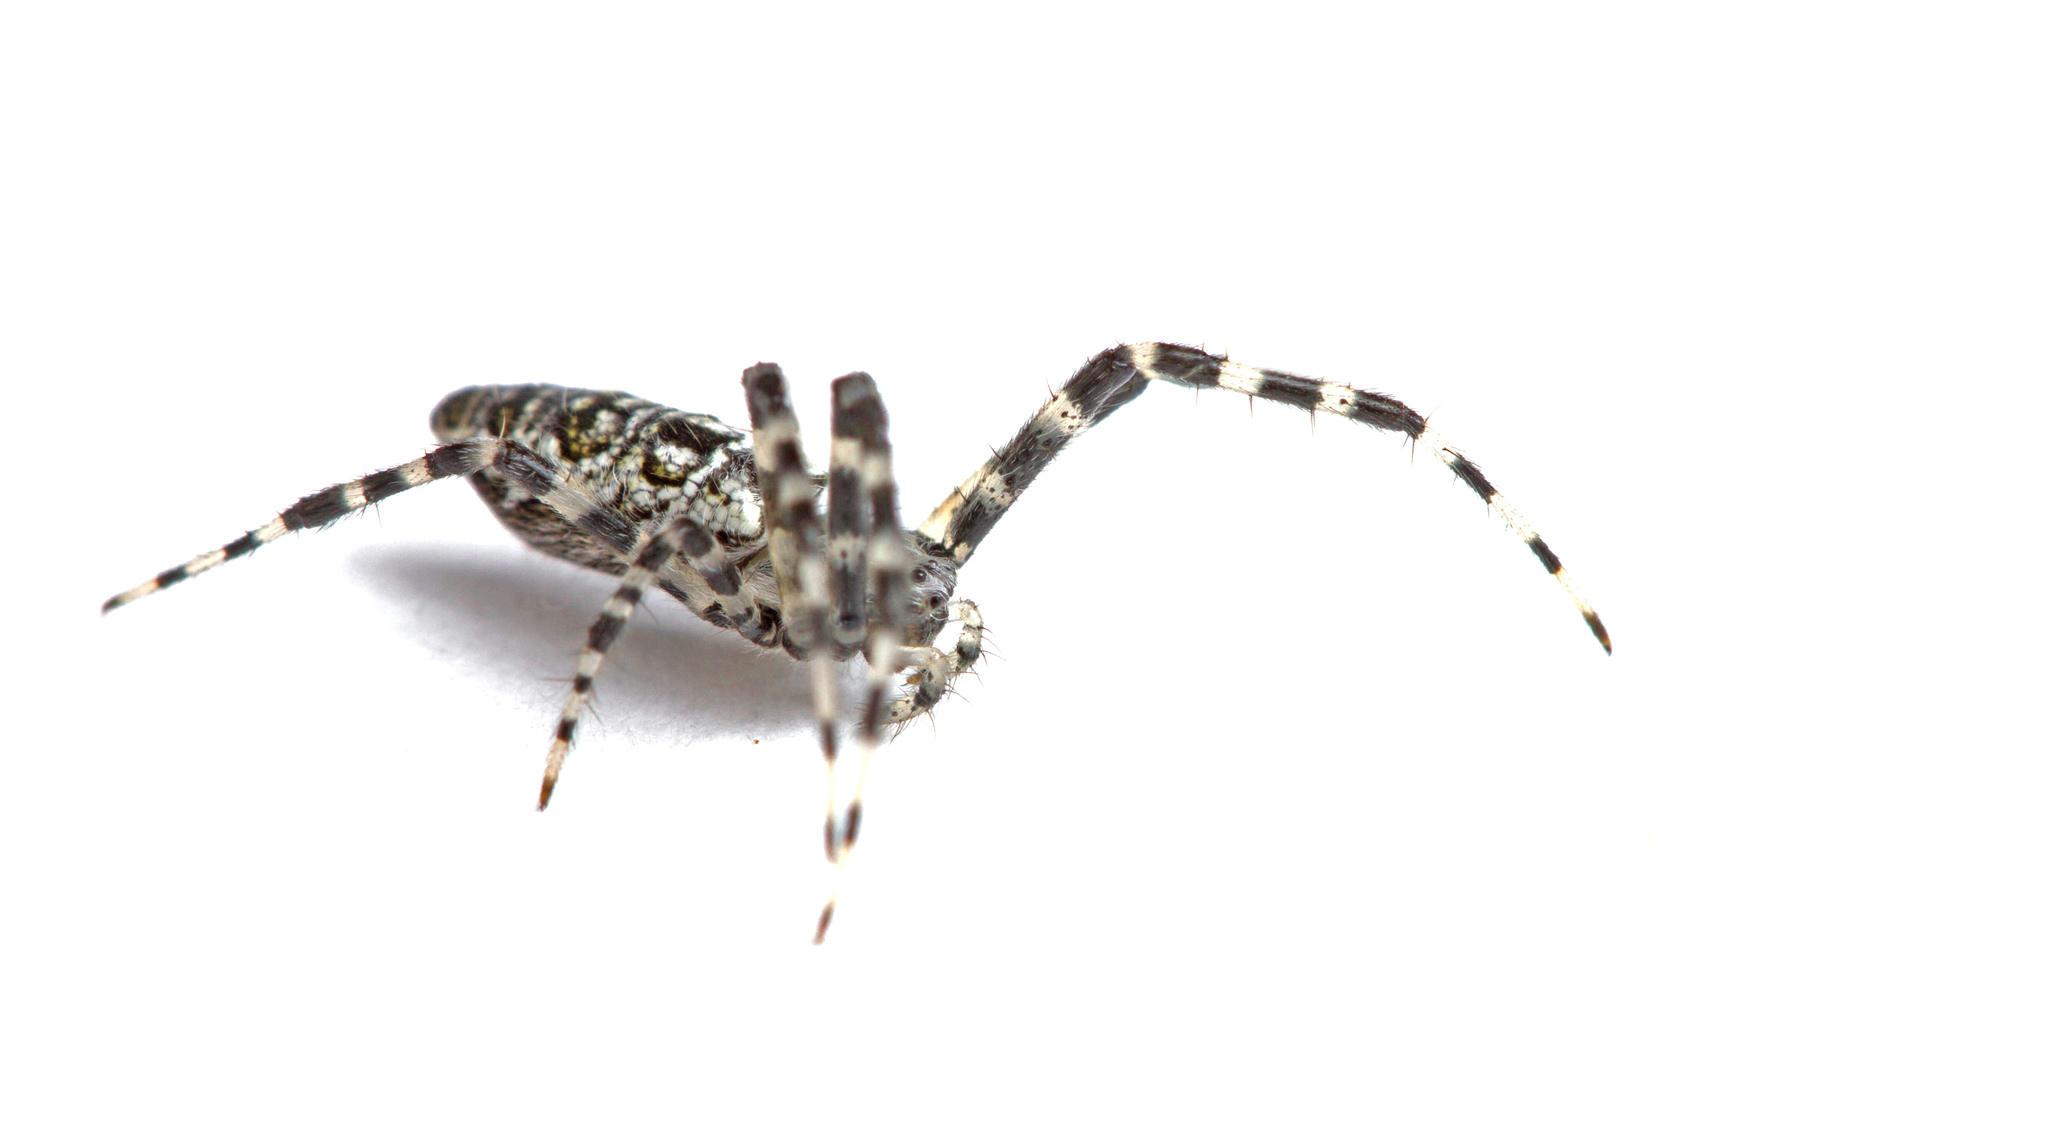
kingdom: Animalia
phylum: Arthropoda
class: Arachnida
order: Araneae
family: Araneidae
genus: Argiope
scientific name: Argiope aurantia
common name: Orb weavers
